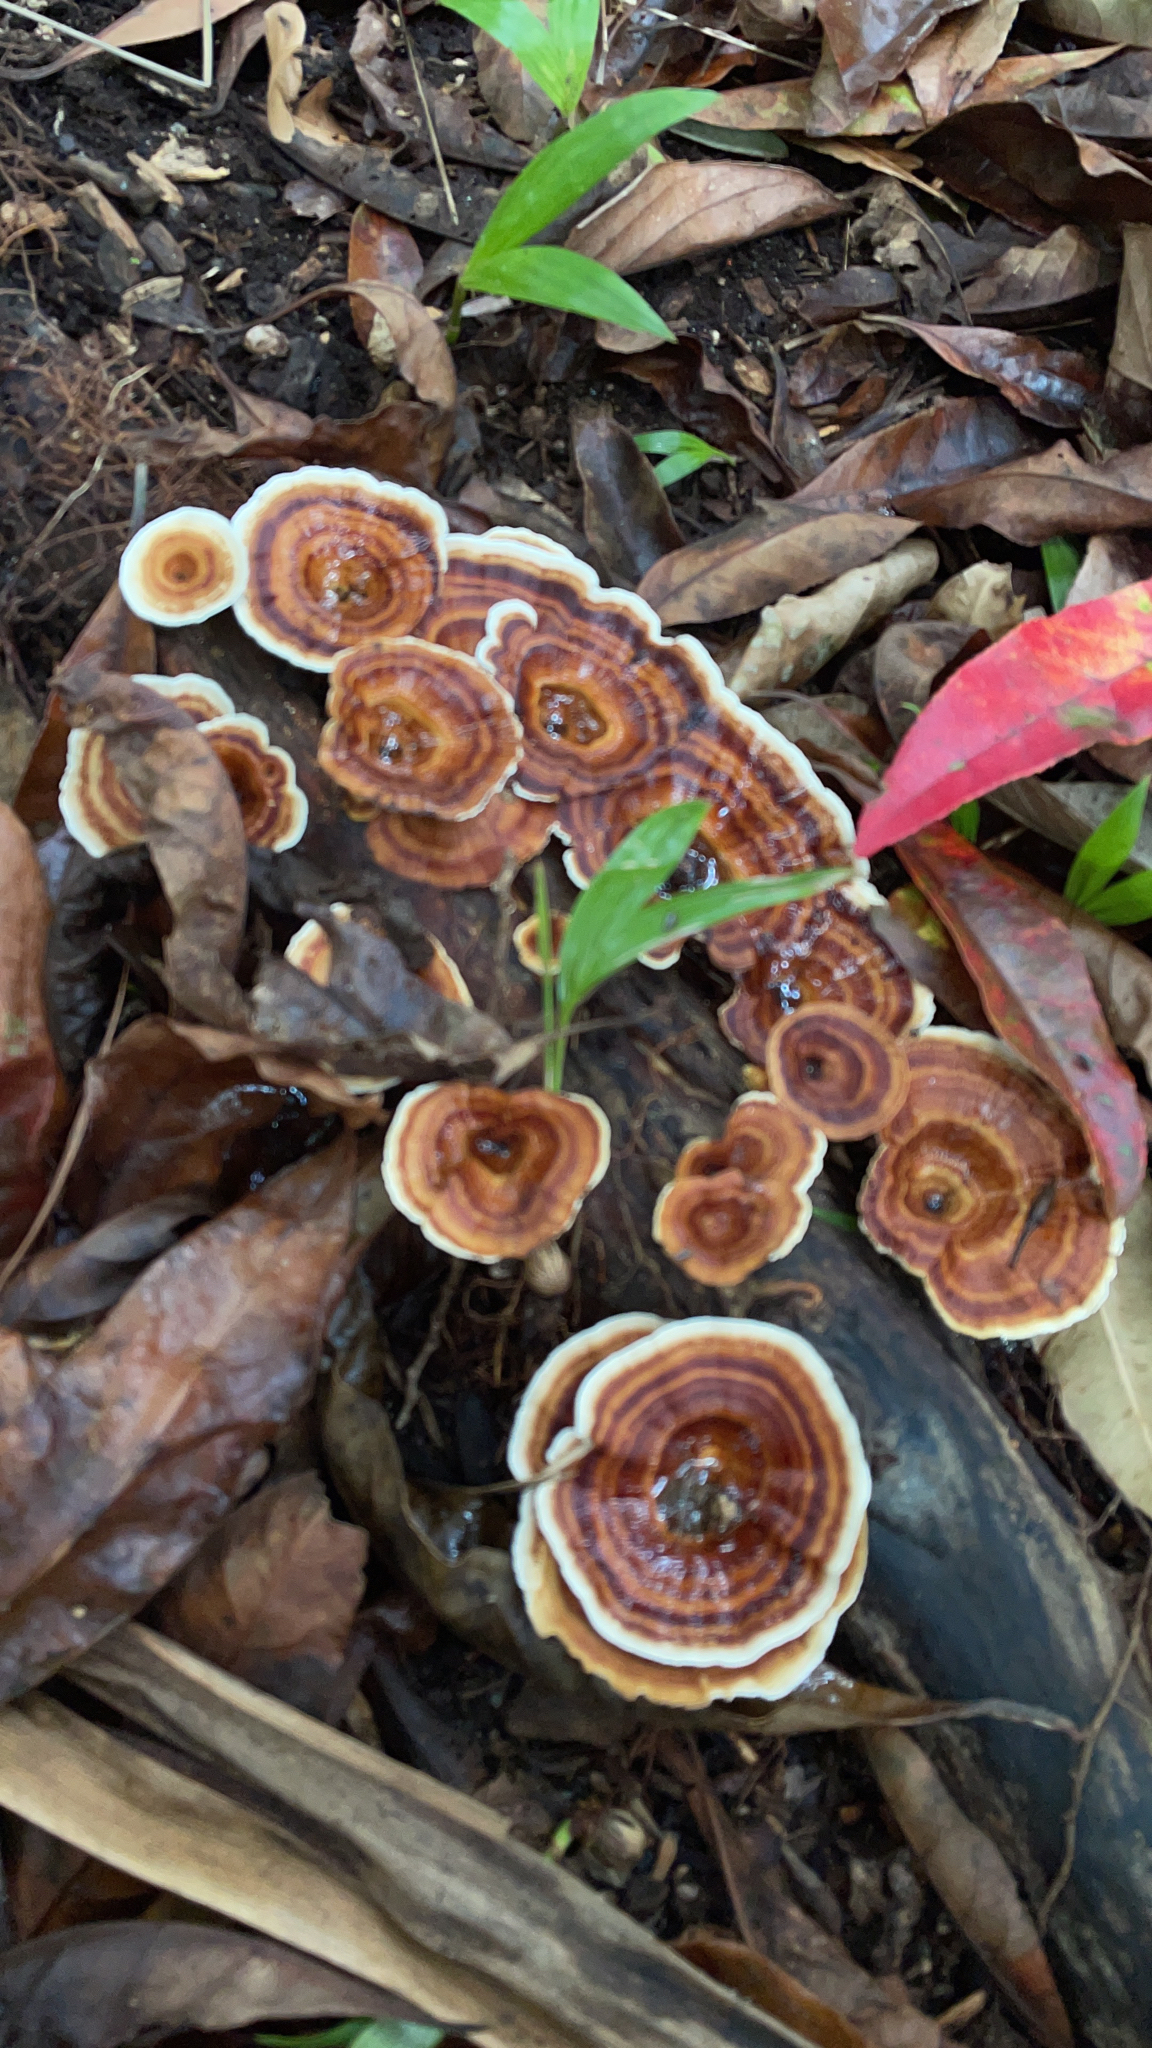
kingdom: Fungi
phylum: Basidiomycota
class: Agaricomycetes
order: Polyporales
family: Polyporaceae
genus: Microporus
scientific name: Microporus xanthopus
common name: Yellow-stemmed micropore
